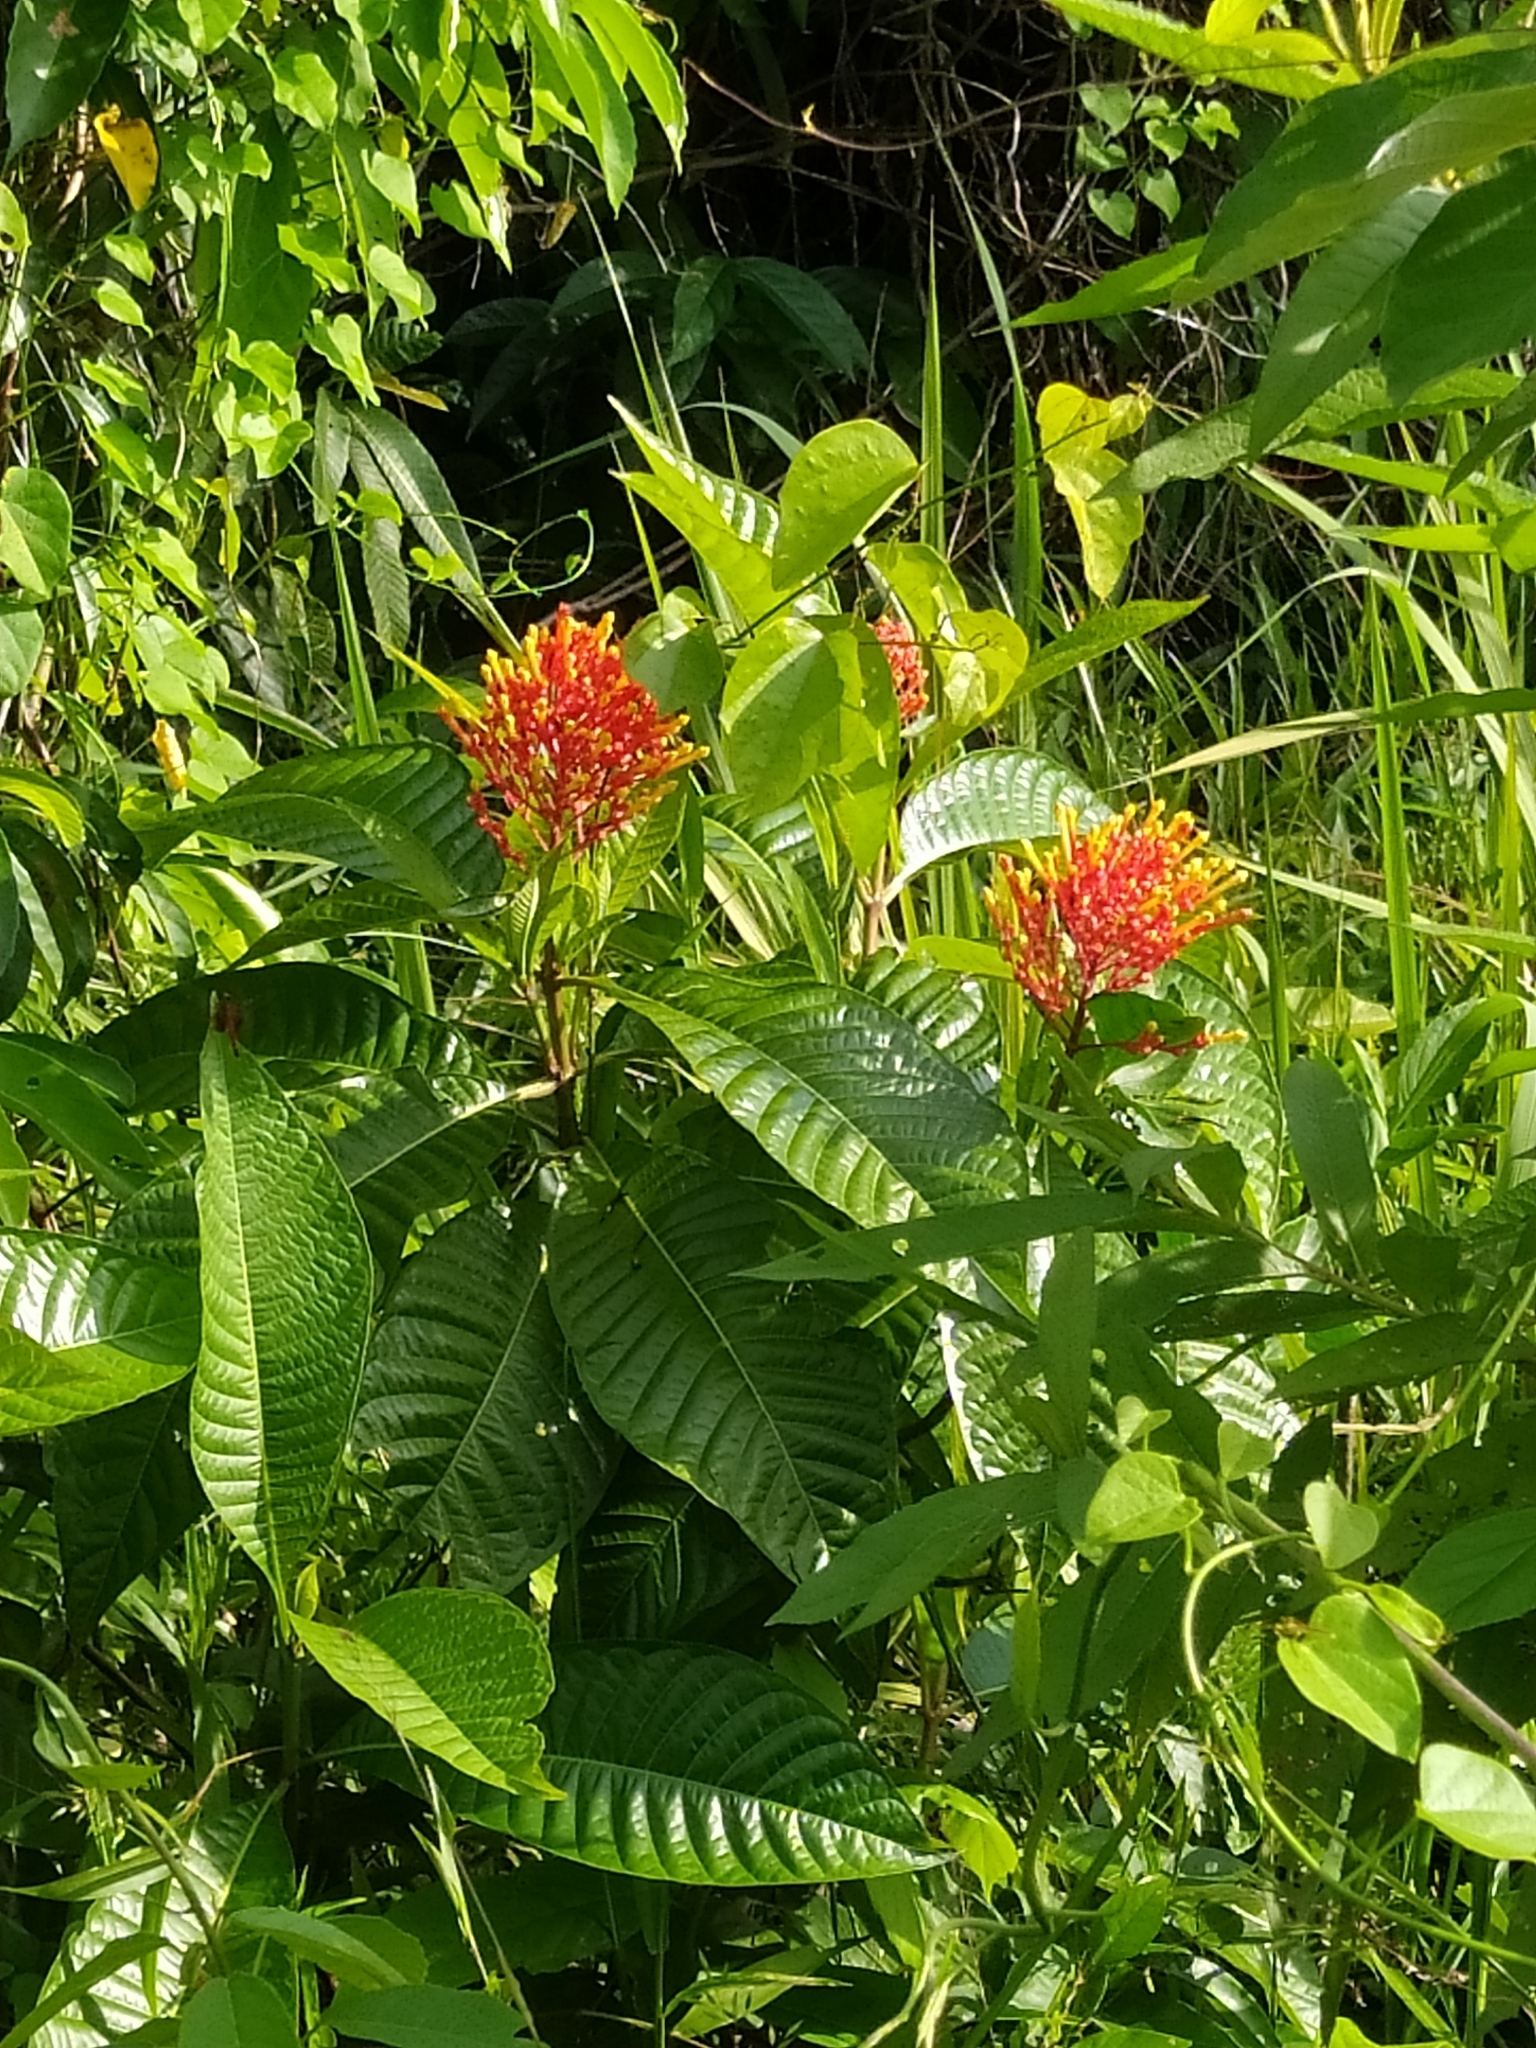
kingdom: Plantae
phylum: Tracheophyta
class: Magnoliopsida
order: Gentianales
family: Rubiaceae
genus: Isertia
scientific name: Isertia haenkeana
